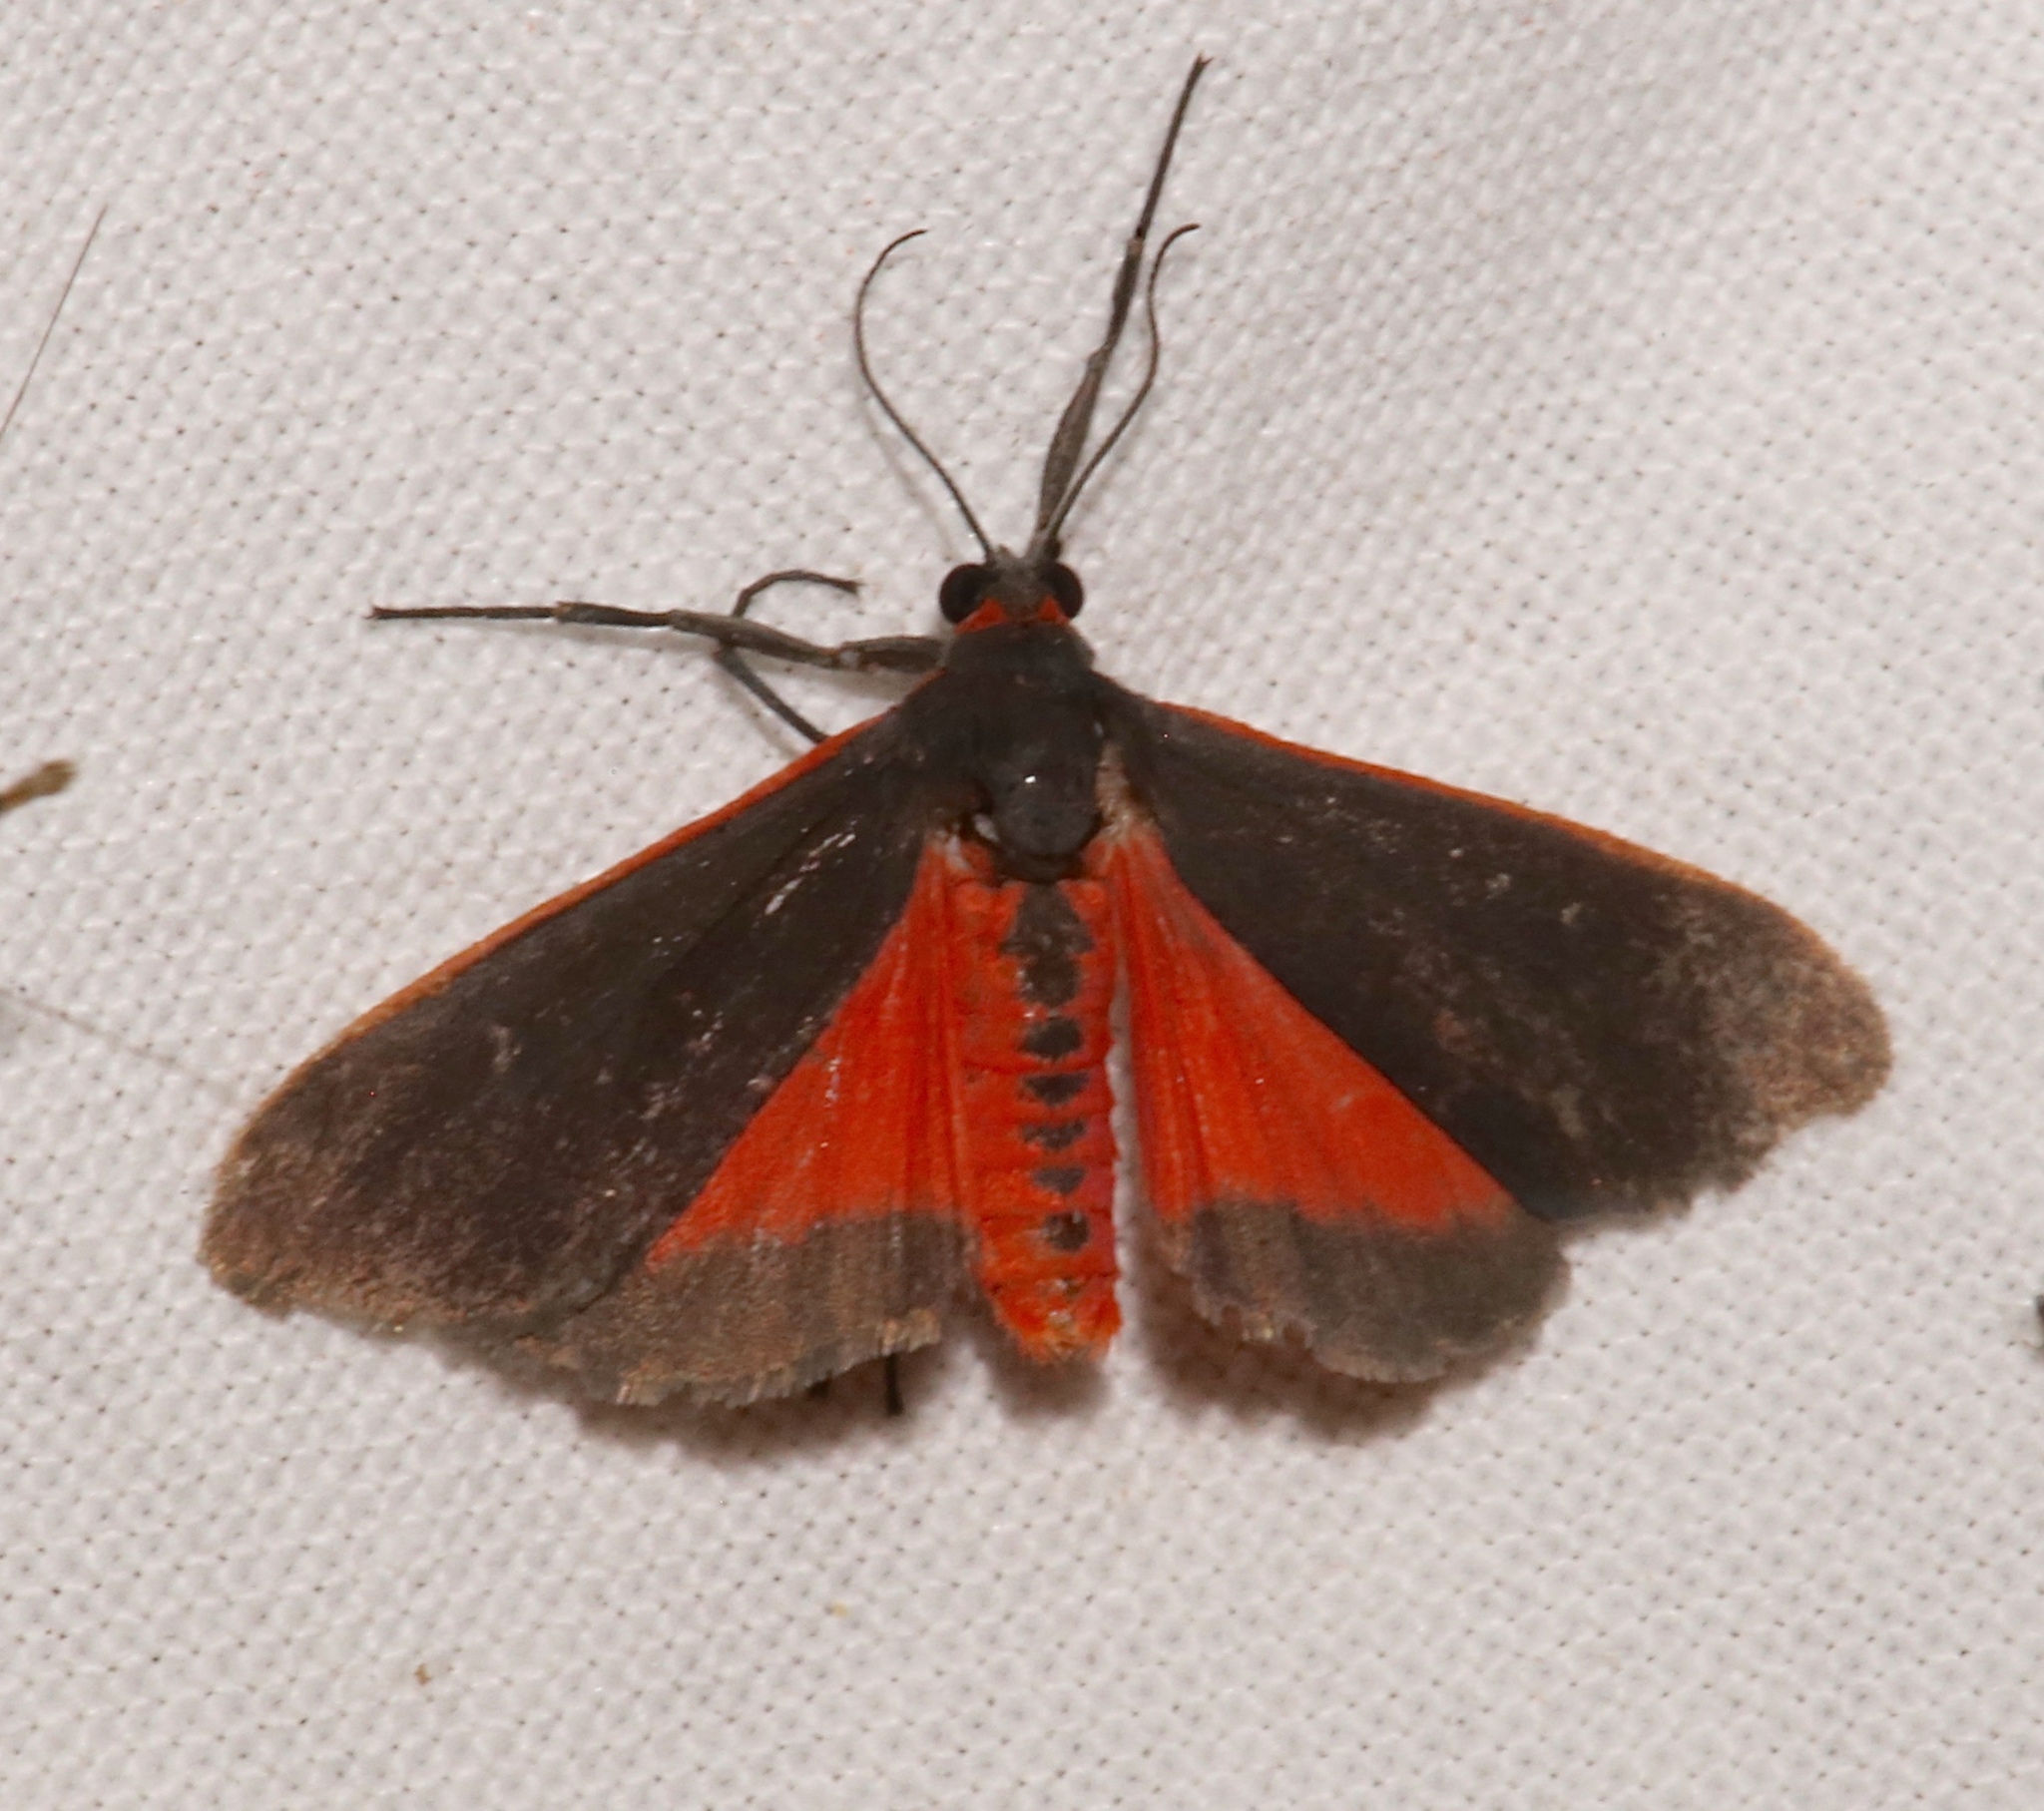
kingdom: Animalia
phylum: Arthropoda
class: Insecta
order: Lepidoptera
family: Erebidae
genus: Virbia
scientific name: Virbia laeta
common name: Joyful holomelina moth
